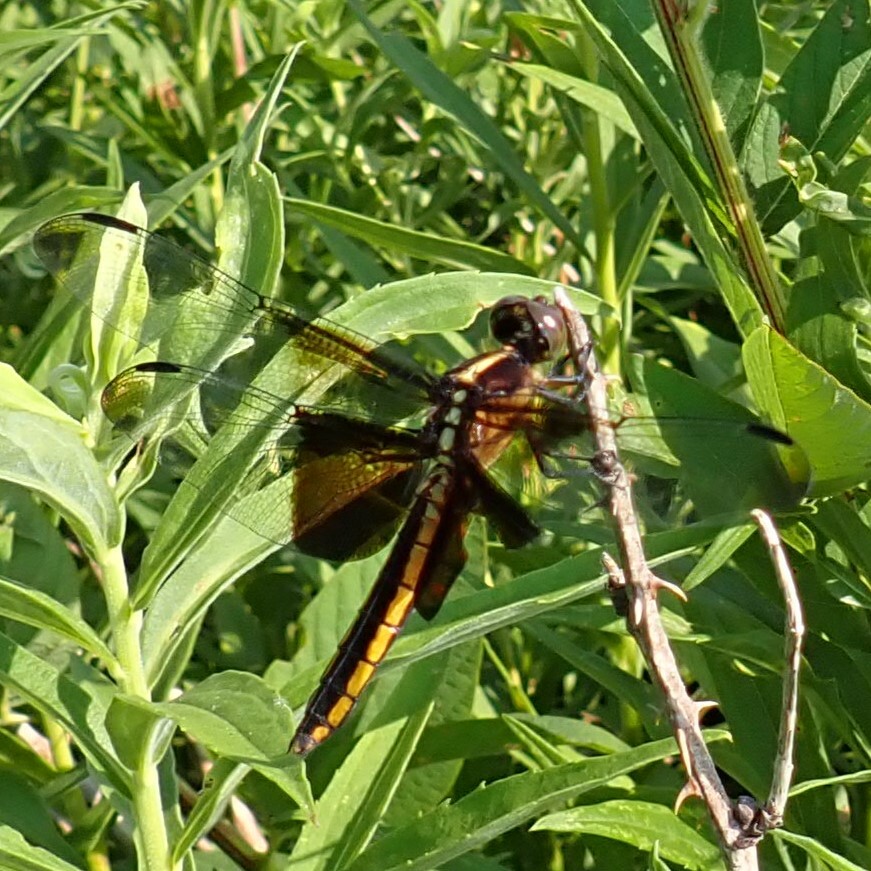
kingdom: Animalia
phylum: Arthropoda
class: Insecta
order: Odonata
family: Libellulidae
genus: Libellula
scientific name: Libellula luctuosa
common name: Widow skimmer
